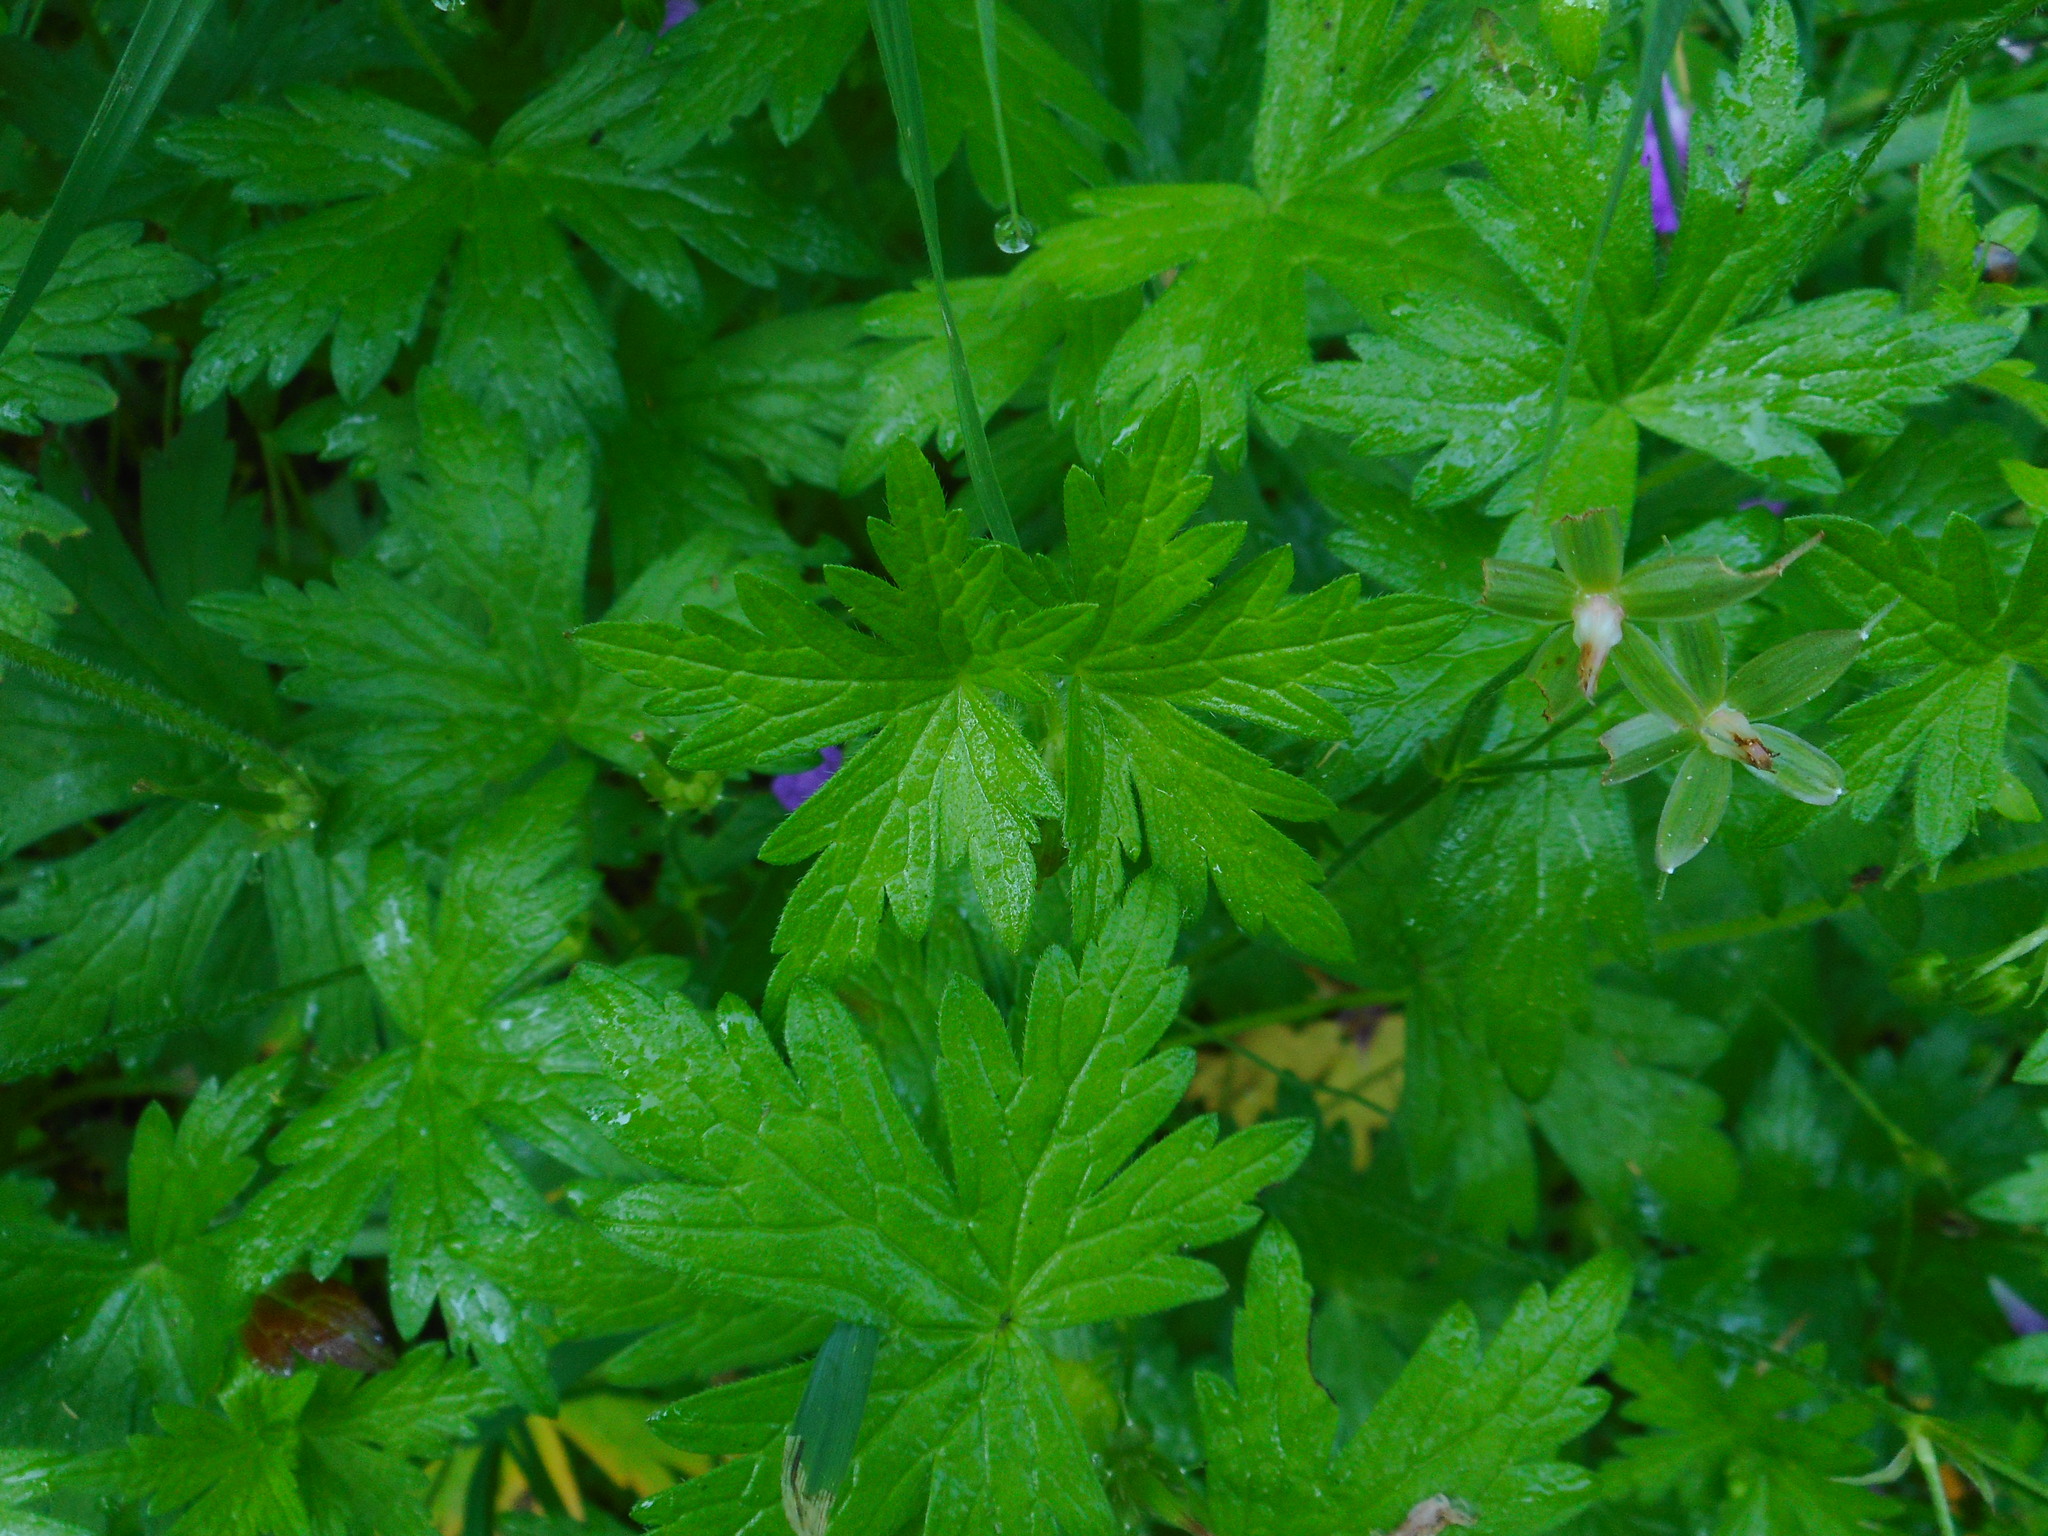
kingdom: Plantae
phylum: Tracheophyta
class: Magnoliopsida
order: Geraniales
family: Geraniaceae
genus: Geranium
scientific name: Geranium palustre
